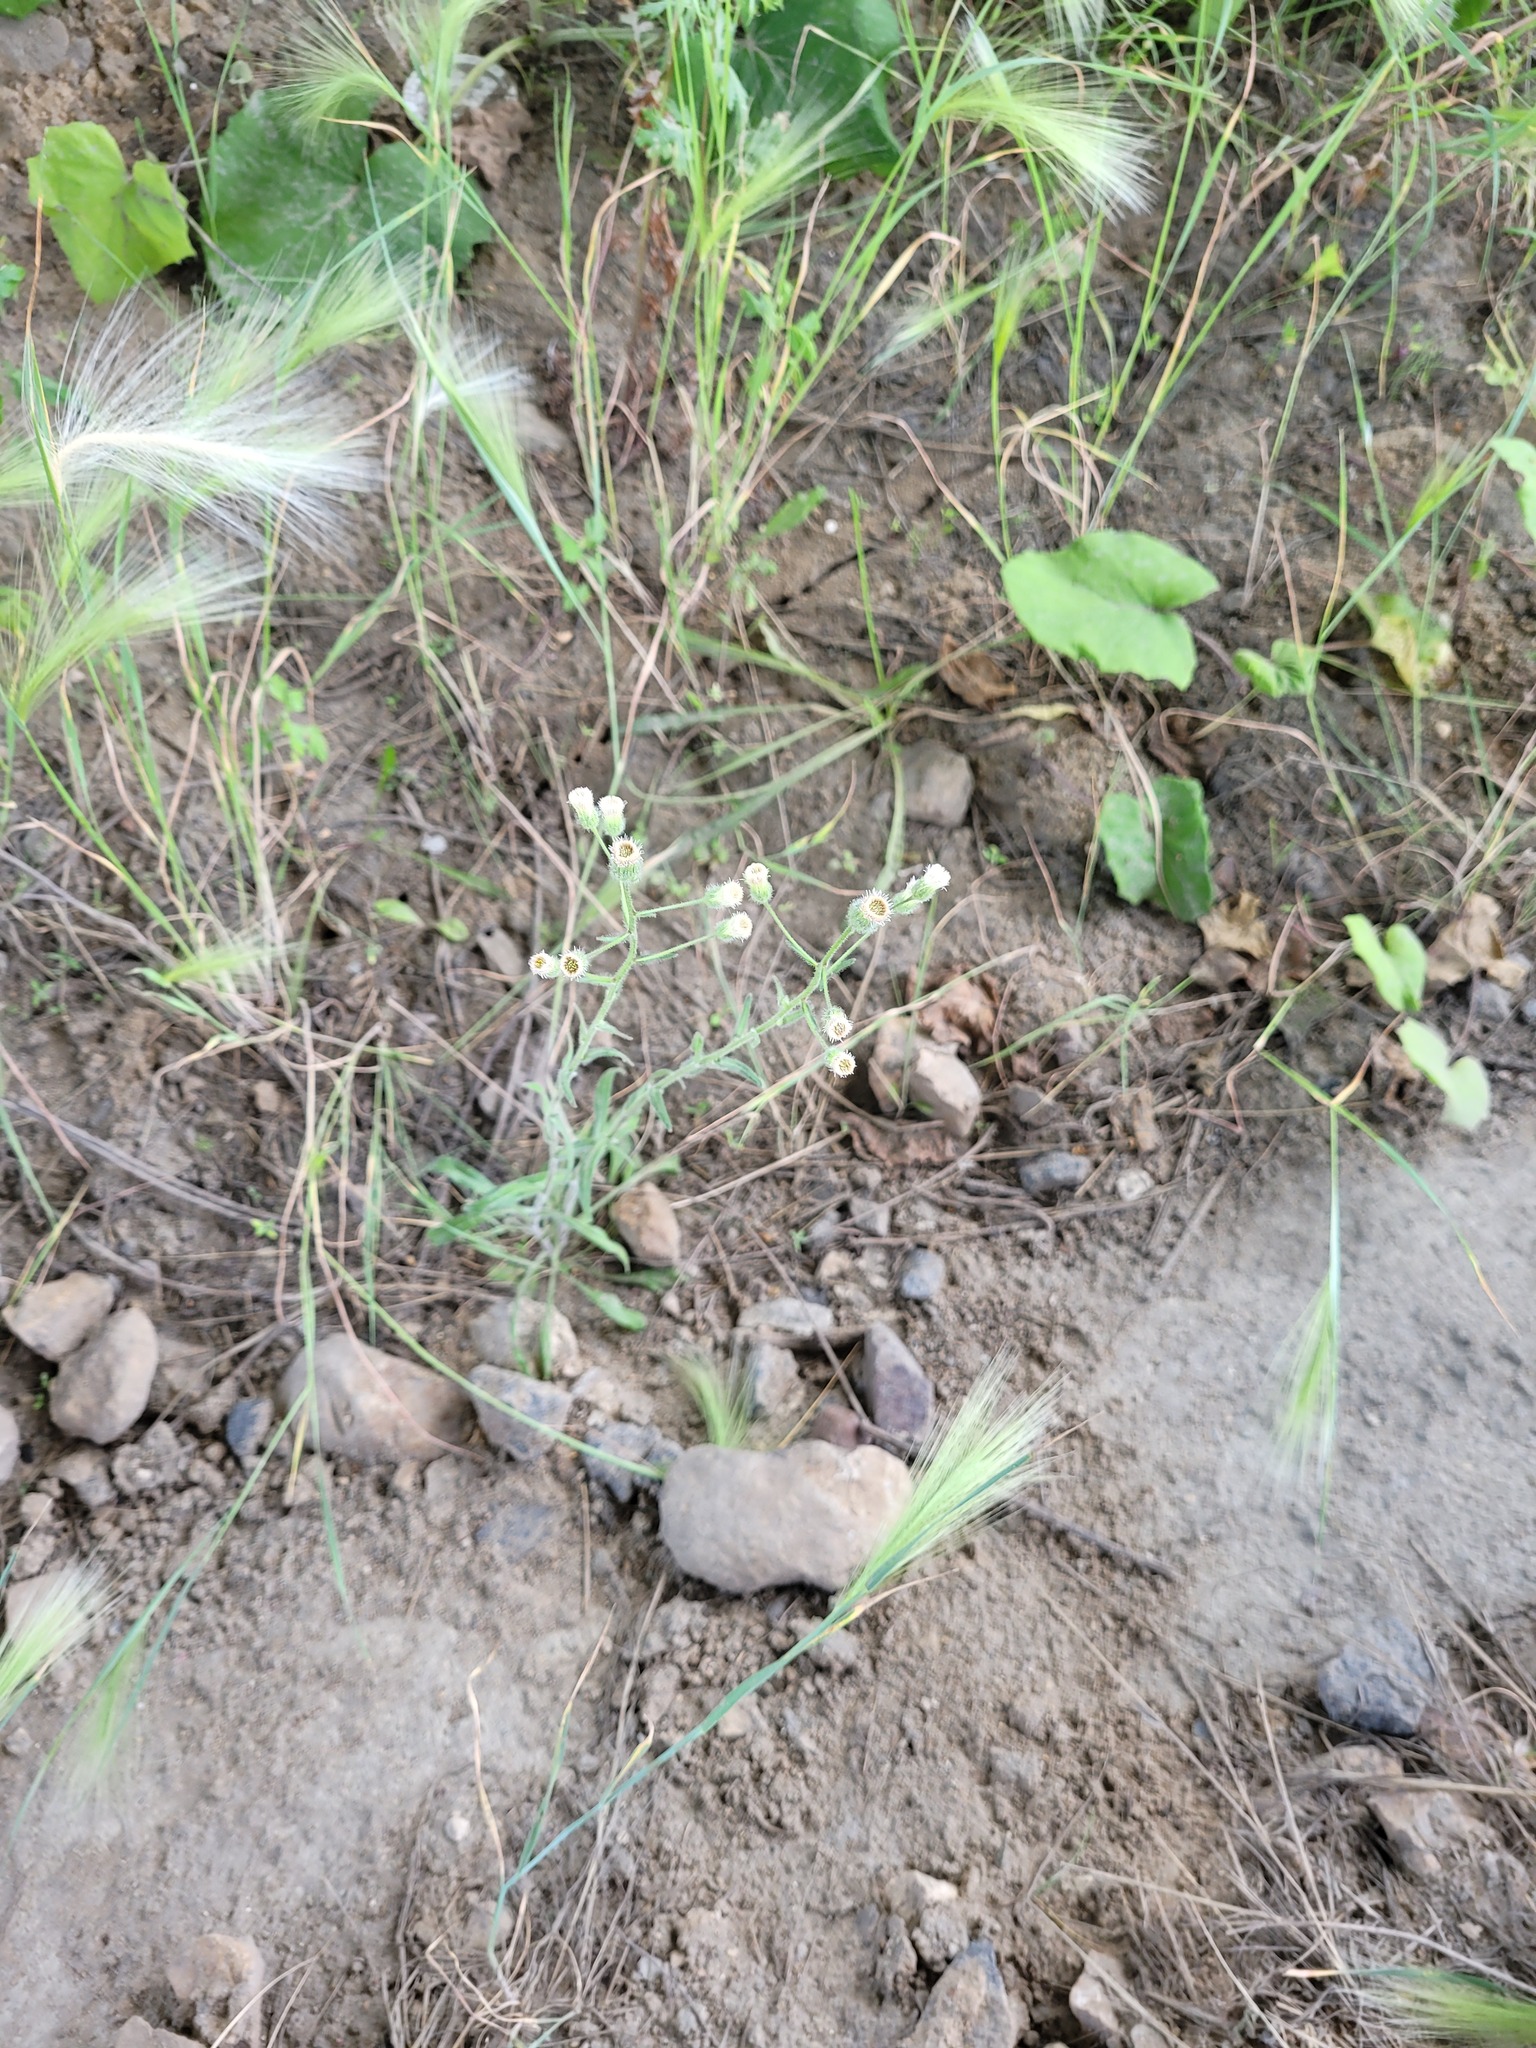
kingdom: Plantae
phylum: Tracheophyta
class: Magnoliopsida
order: Asterales
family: Asteraceae
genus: Erigeron
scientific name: Erigeron acris
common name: Blue fleabane
